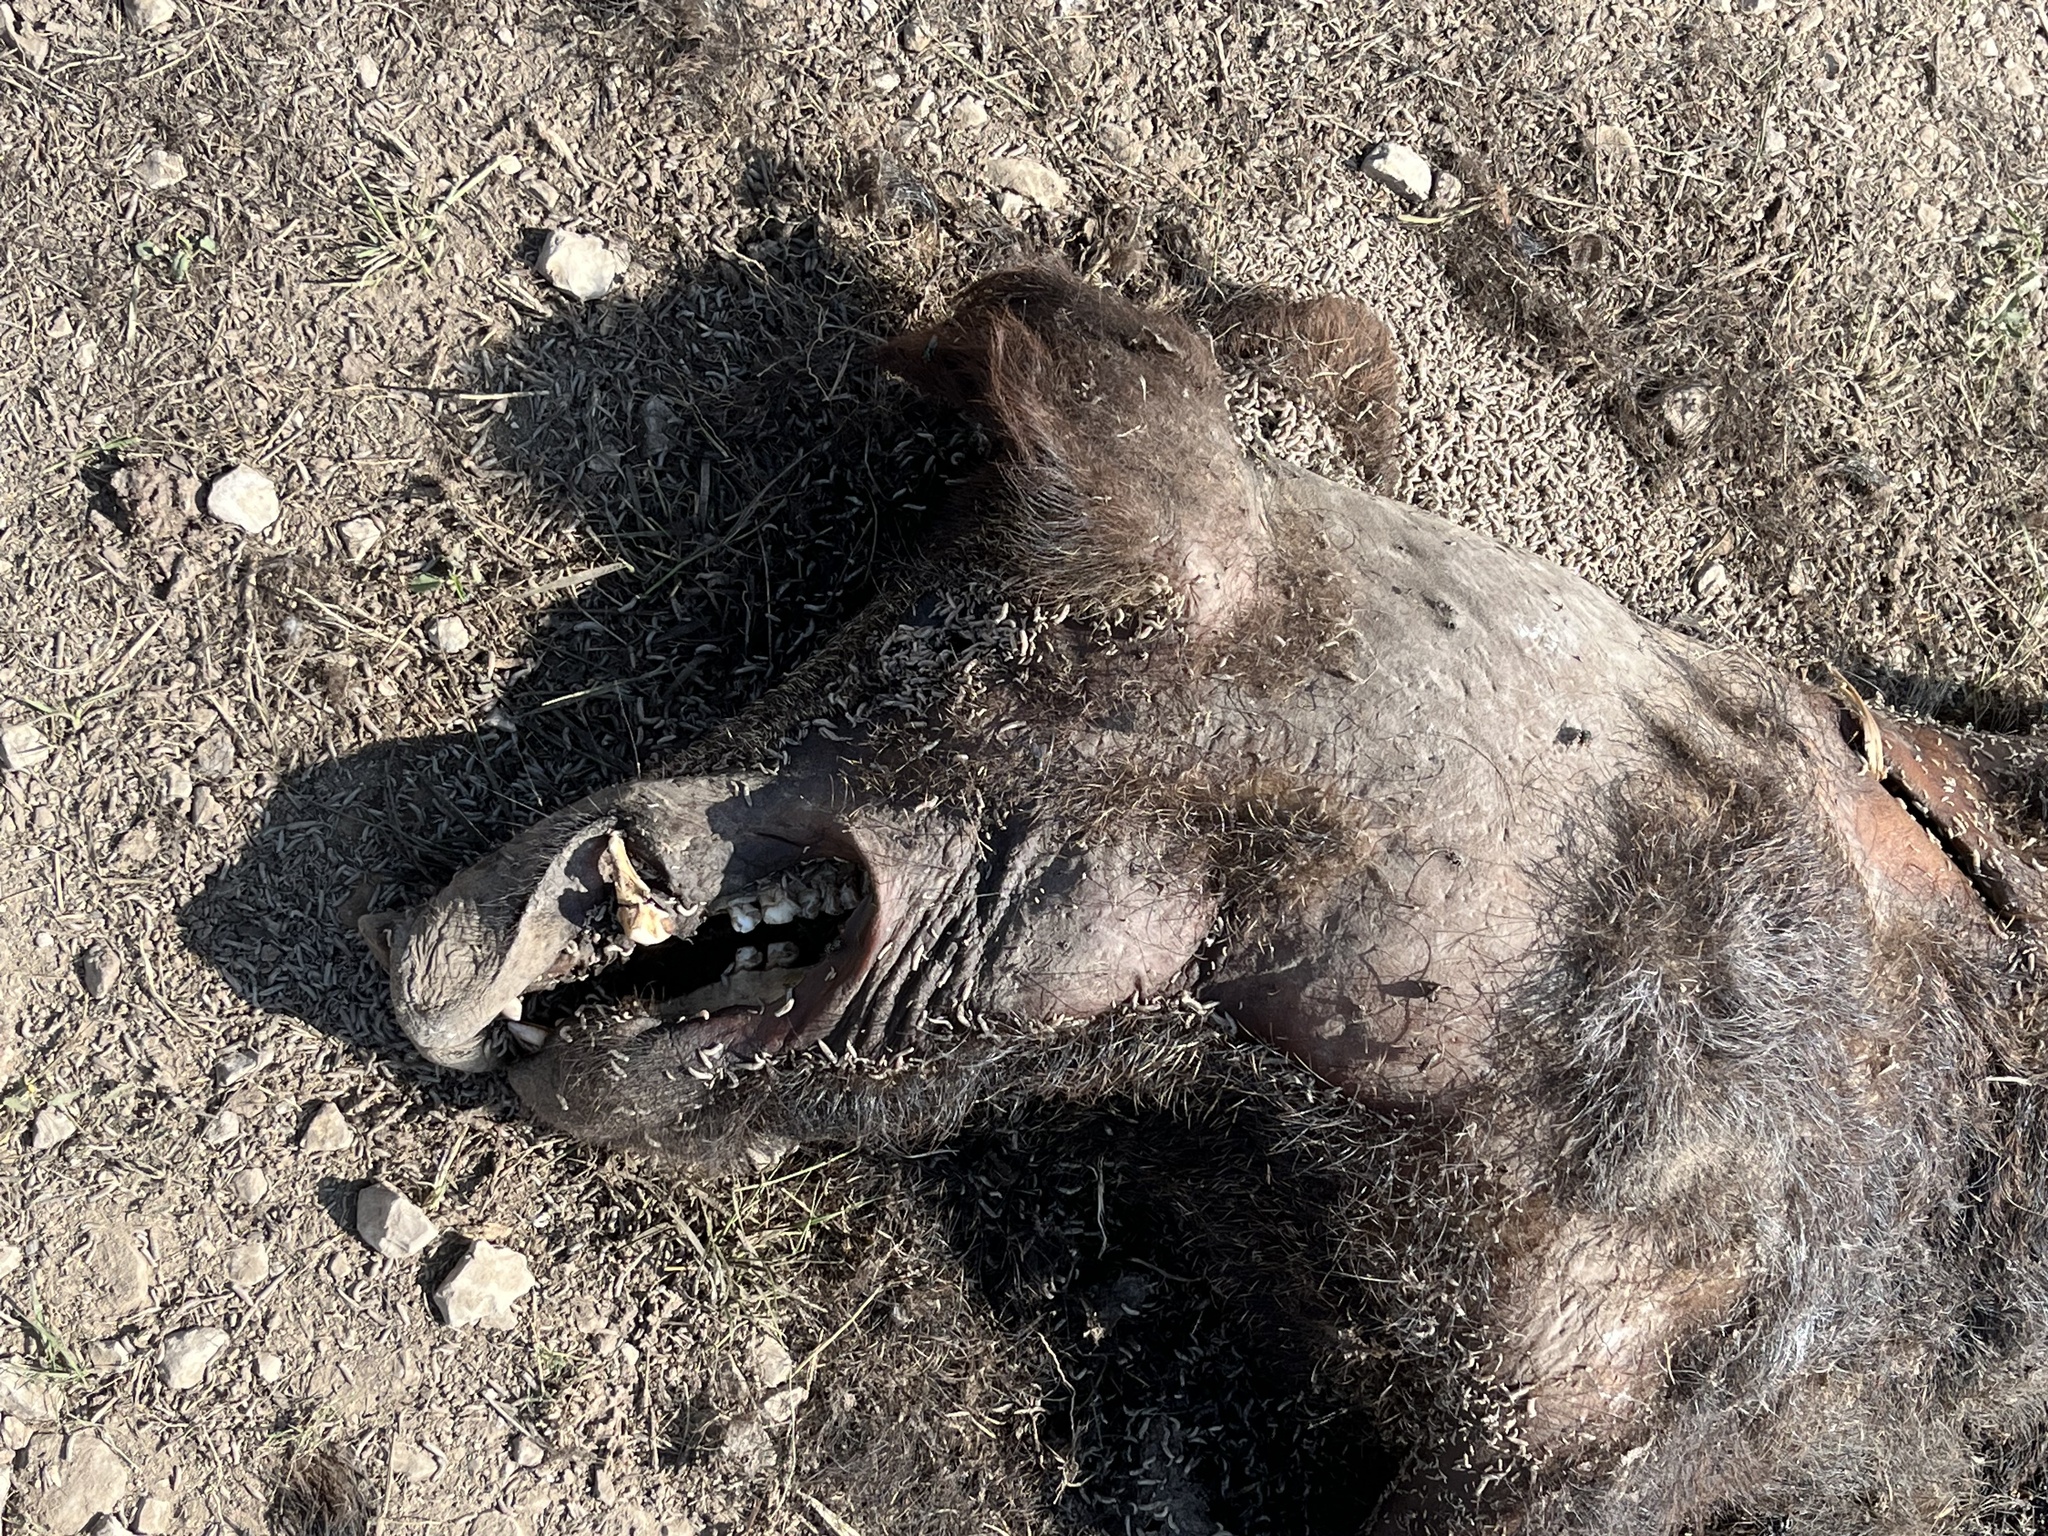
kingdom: Animalia
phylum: Chordata
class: Mammalia
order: Artiodactyla
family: Suidae
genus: Sus
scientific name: Sus scrofa
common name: Wild boar
